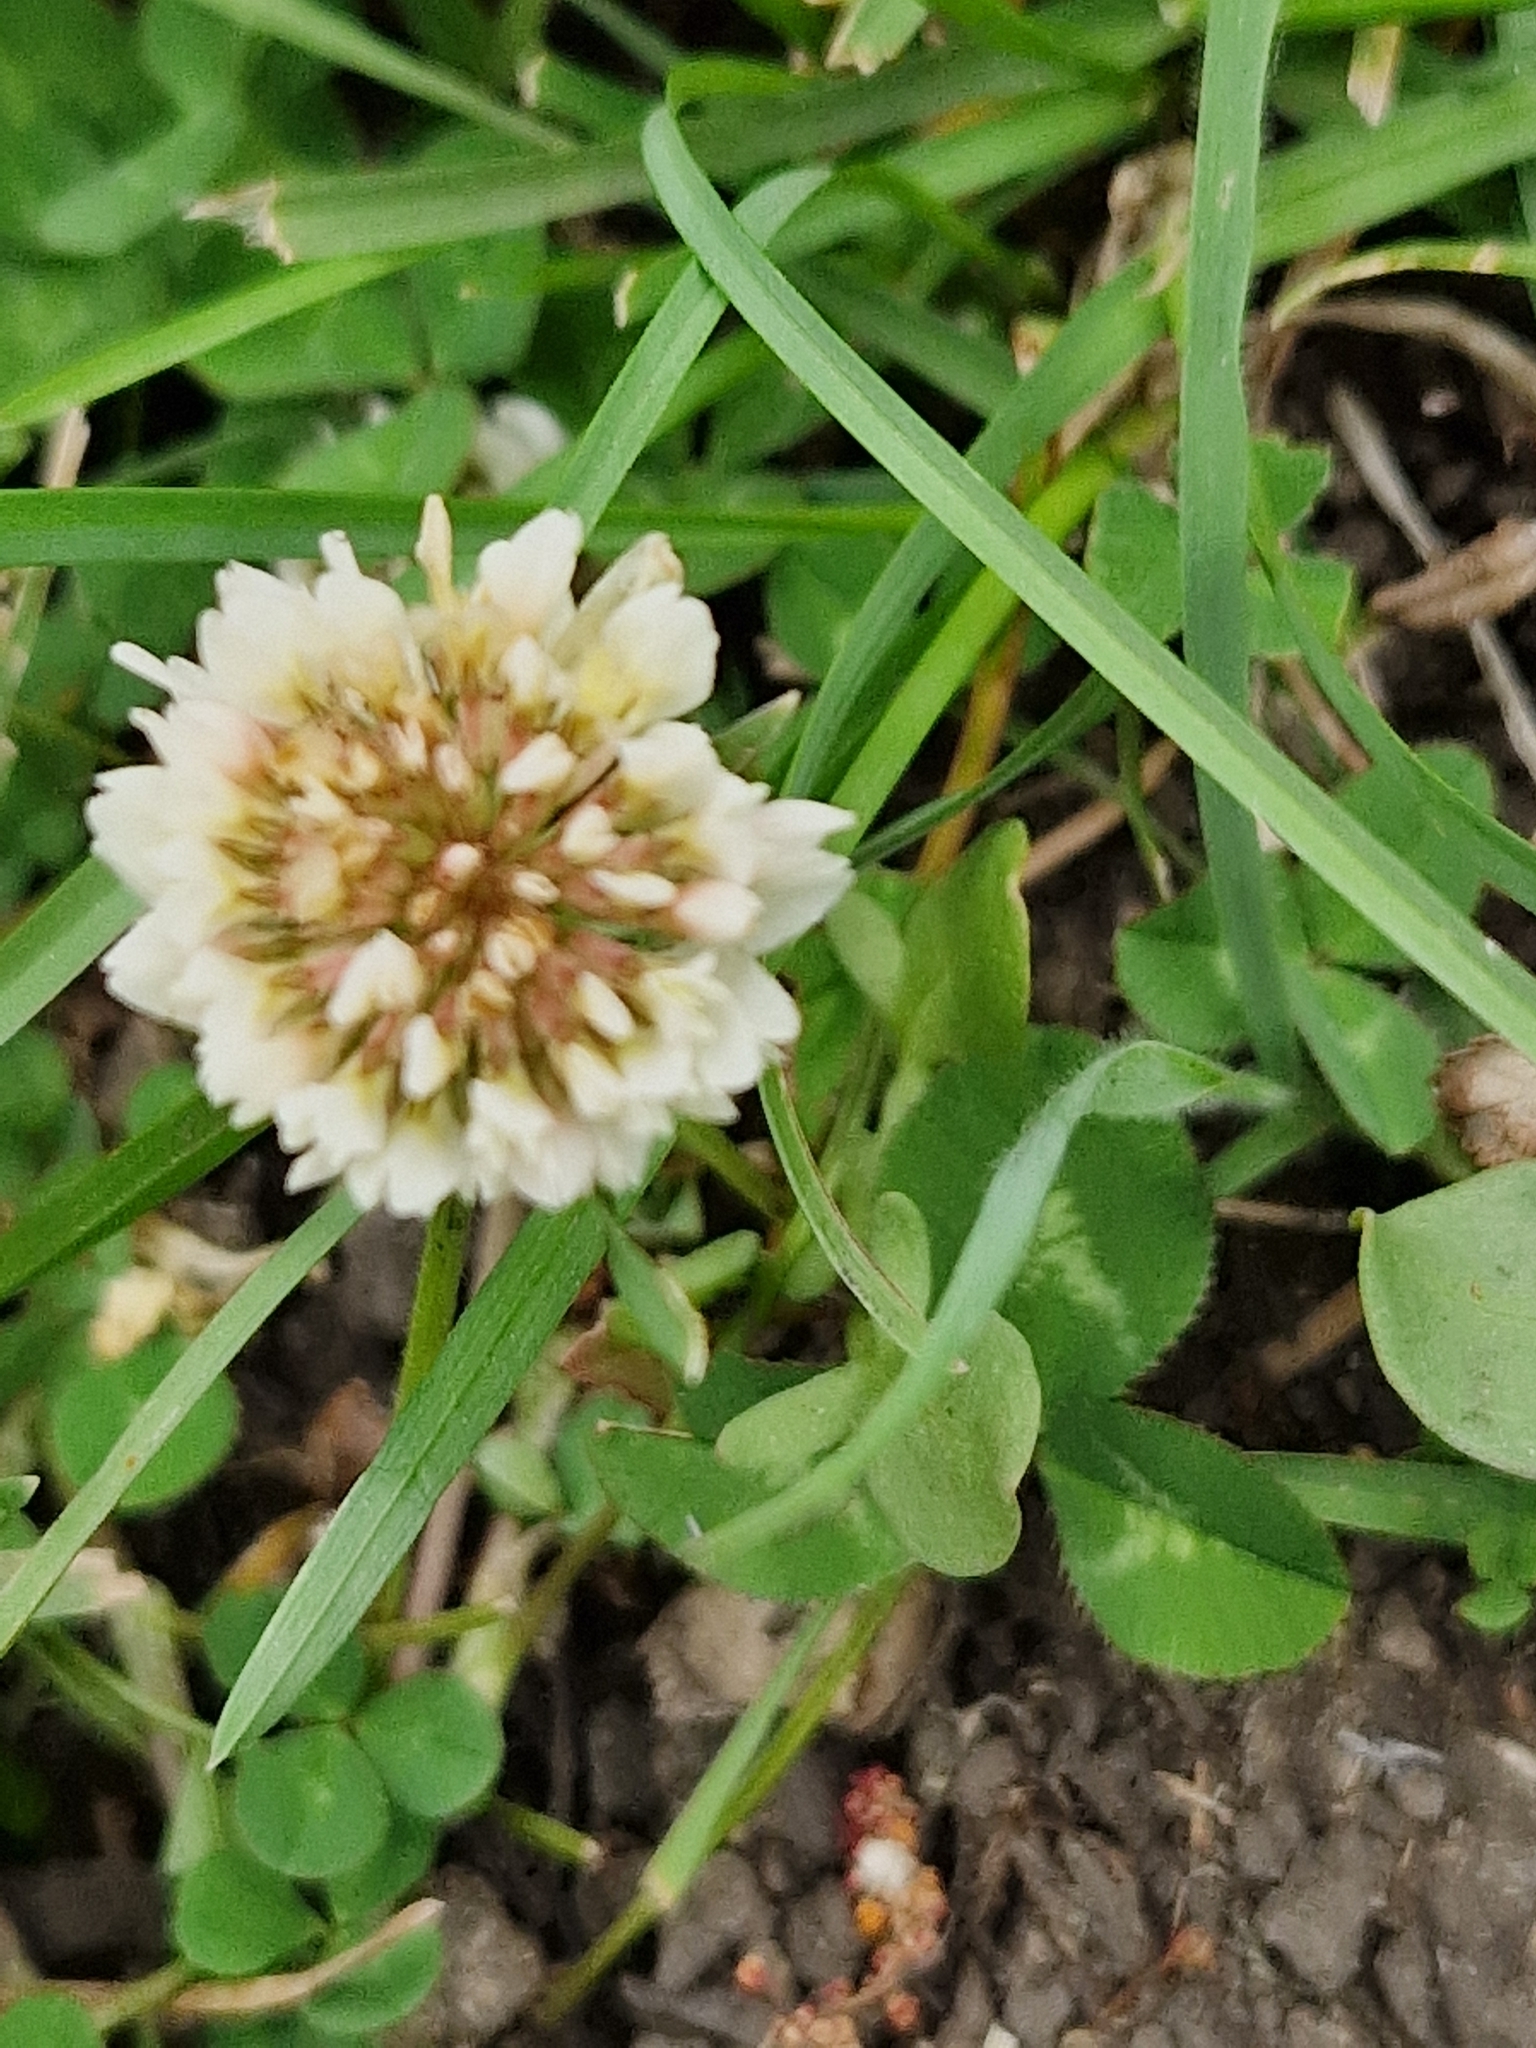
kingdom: Plantae
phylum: Tracheophyta
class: Magnoliopsida
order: Fabales
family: Fabaceae
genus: Trifolium
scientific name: Trifolium repens
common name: White clover
